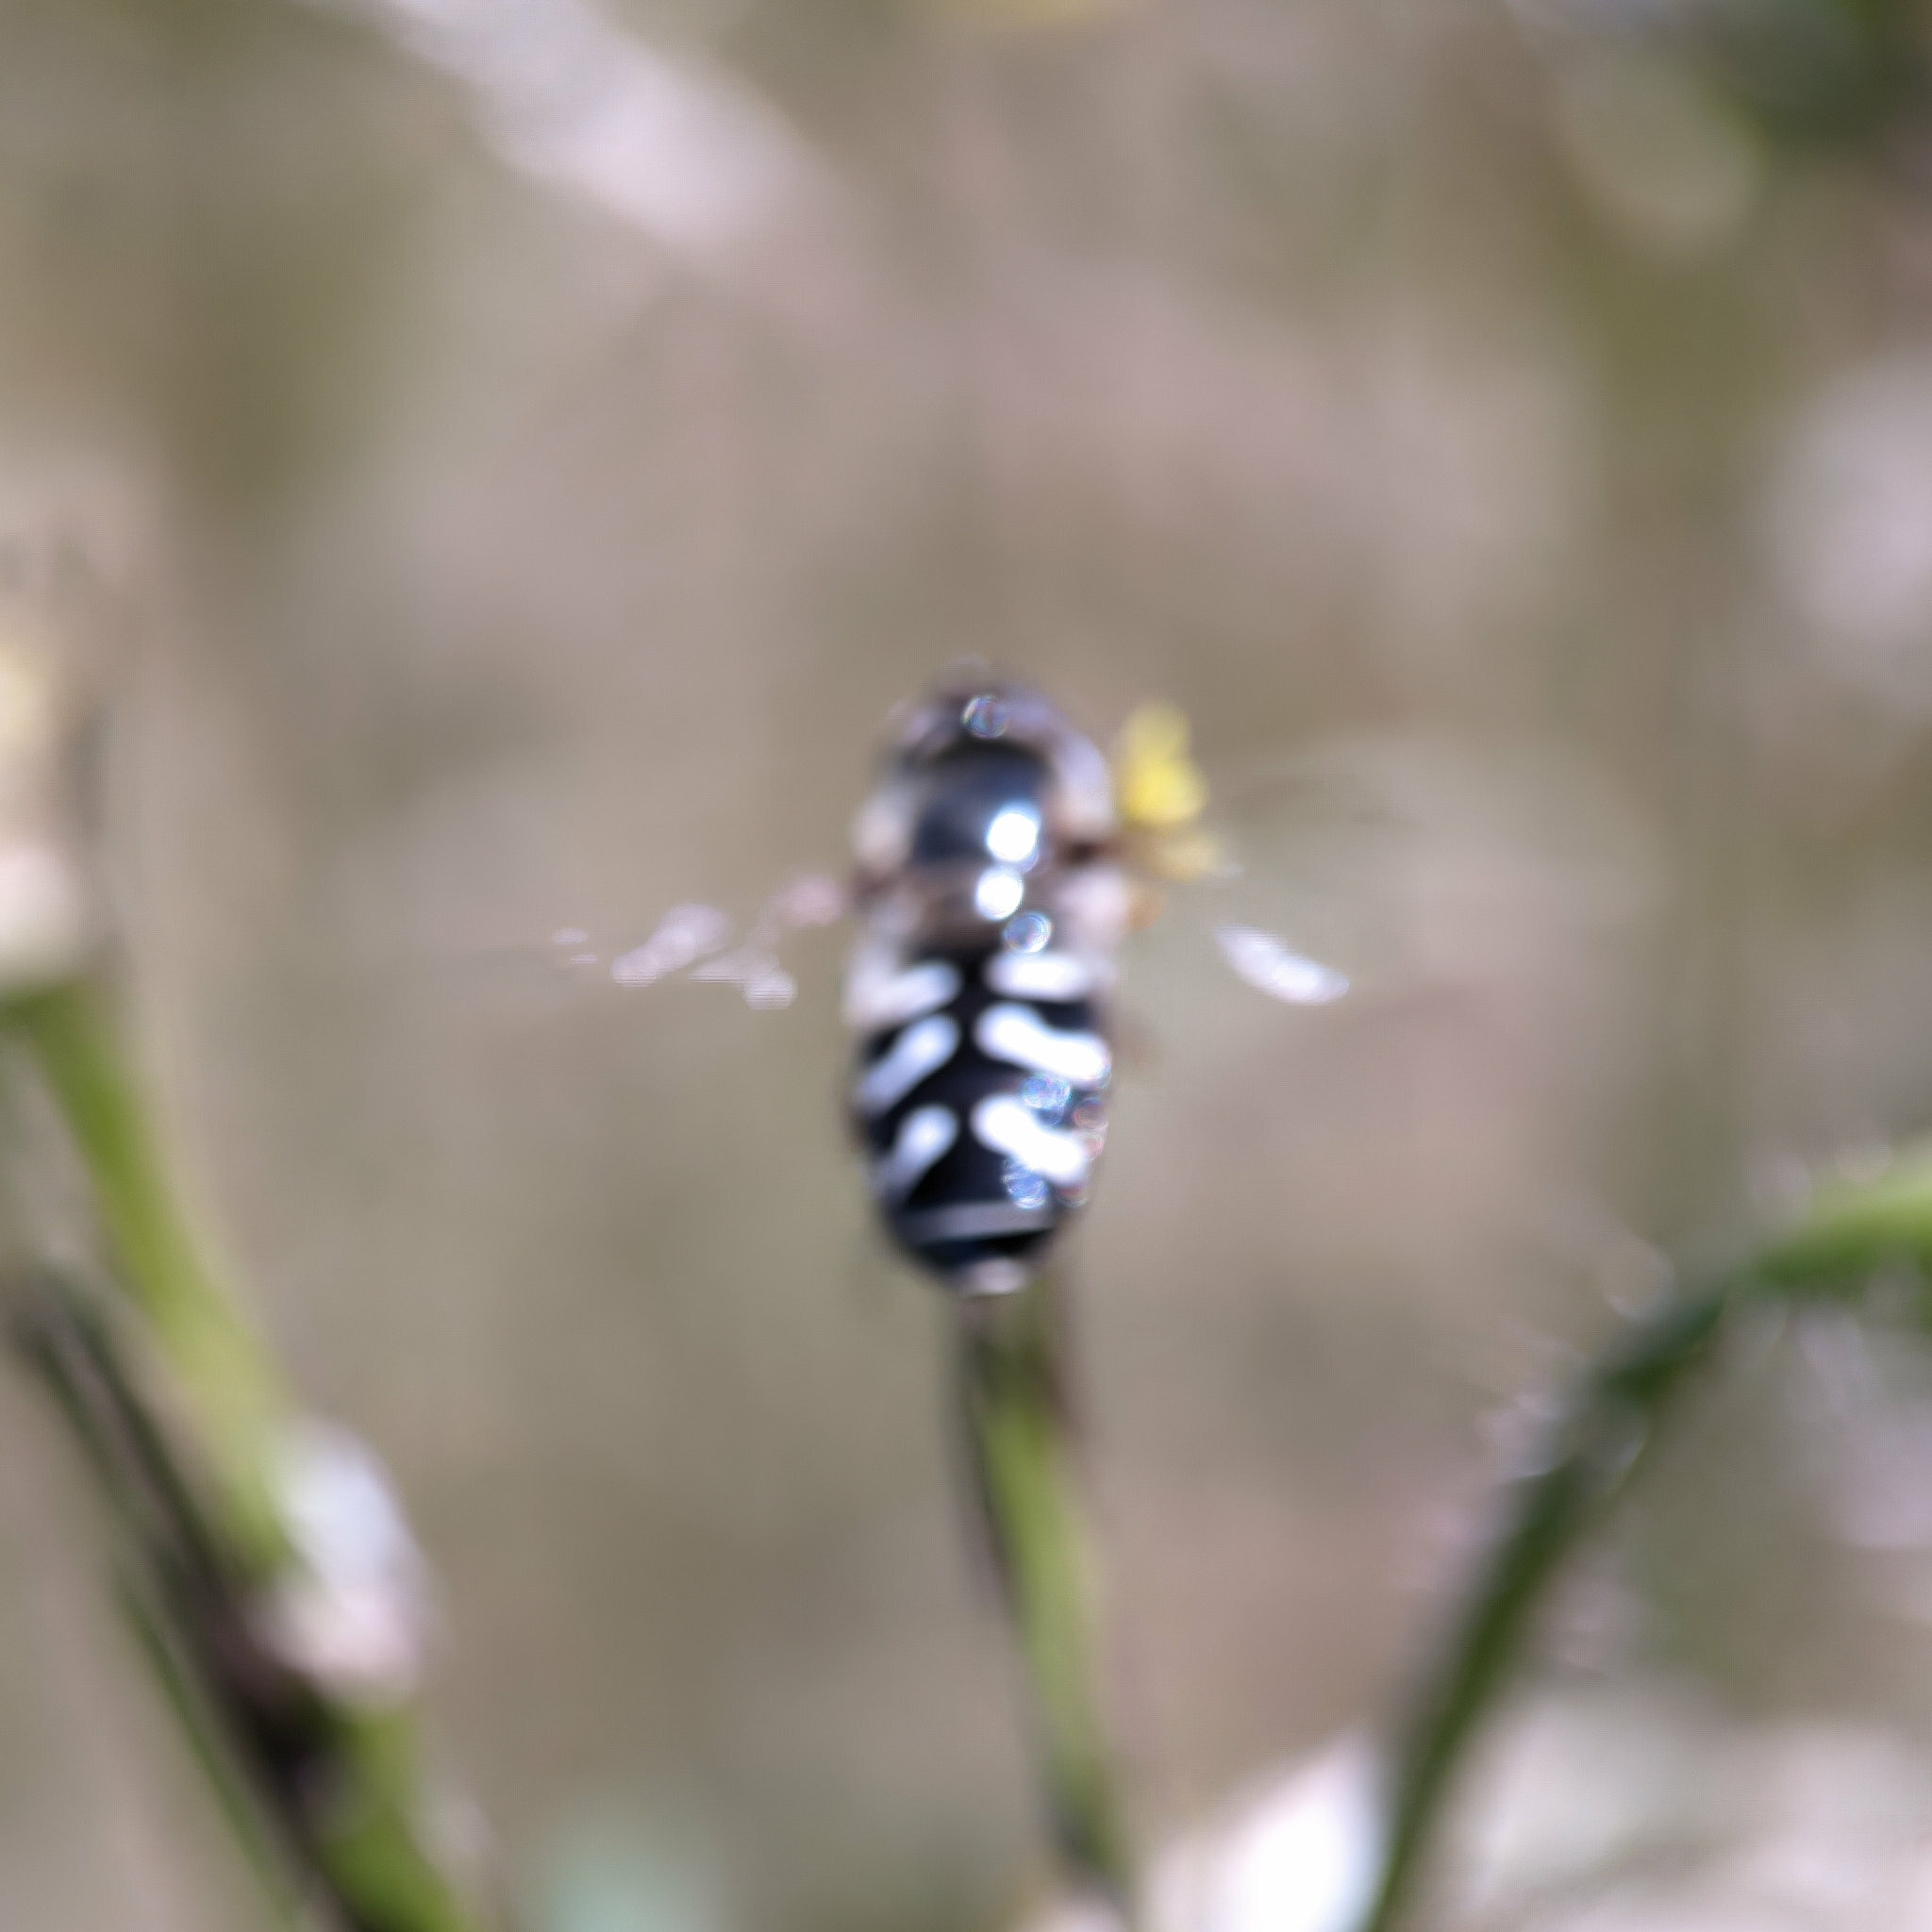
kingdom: Animalia
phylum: Arthropoda
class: Insecta
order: Diptera
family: Syrphidae
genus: Scaeva
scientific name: Scaeva pyrastri
